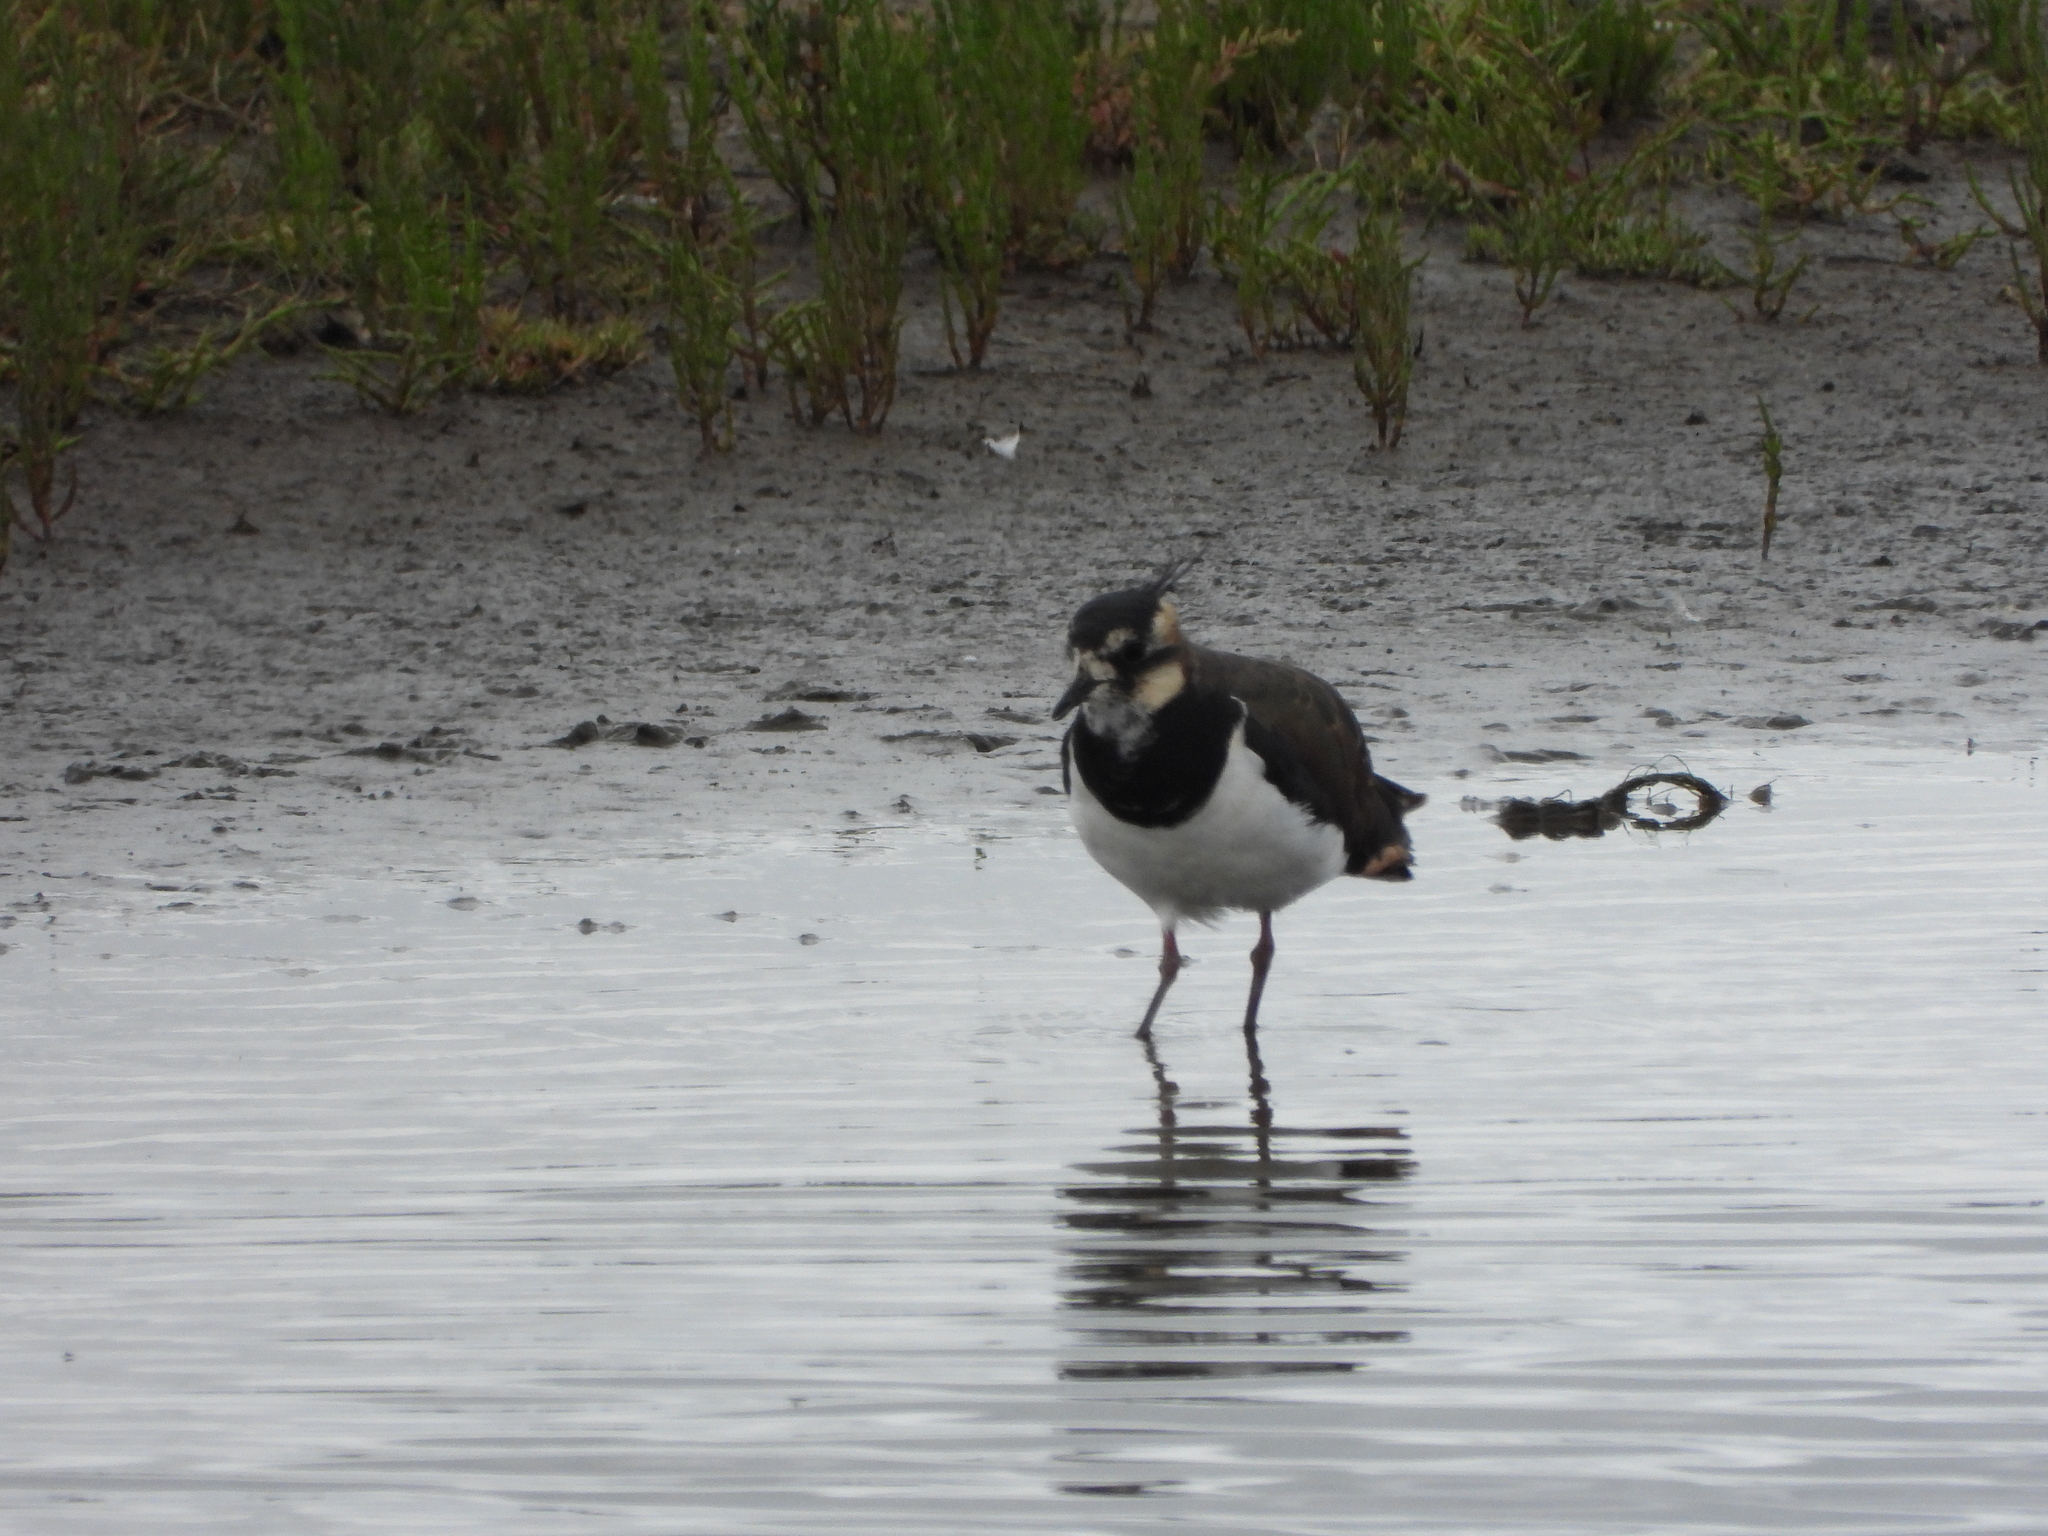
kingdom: Animalia
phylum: Chordata
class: Aves
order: Charadriiformes
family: Charadriidae
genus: Vanellus
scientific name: Vanellus vanellus
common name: Northern lapwing
